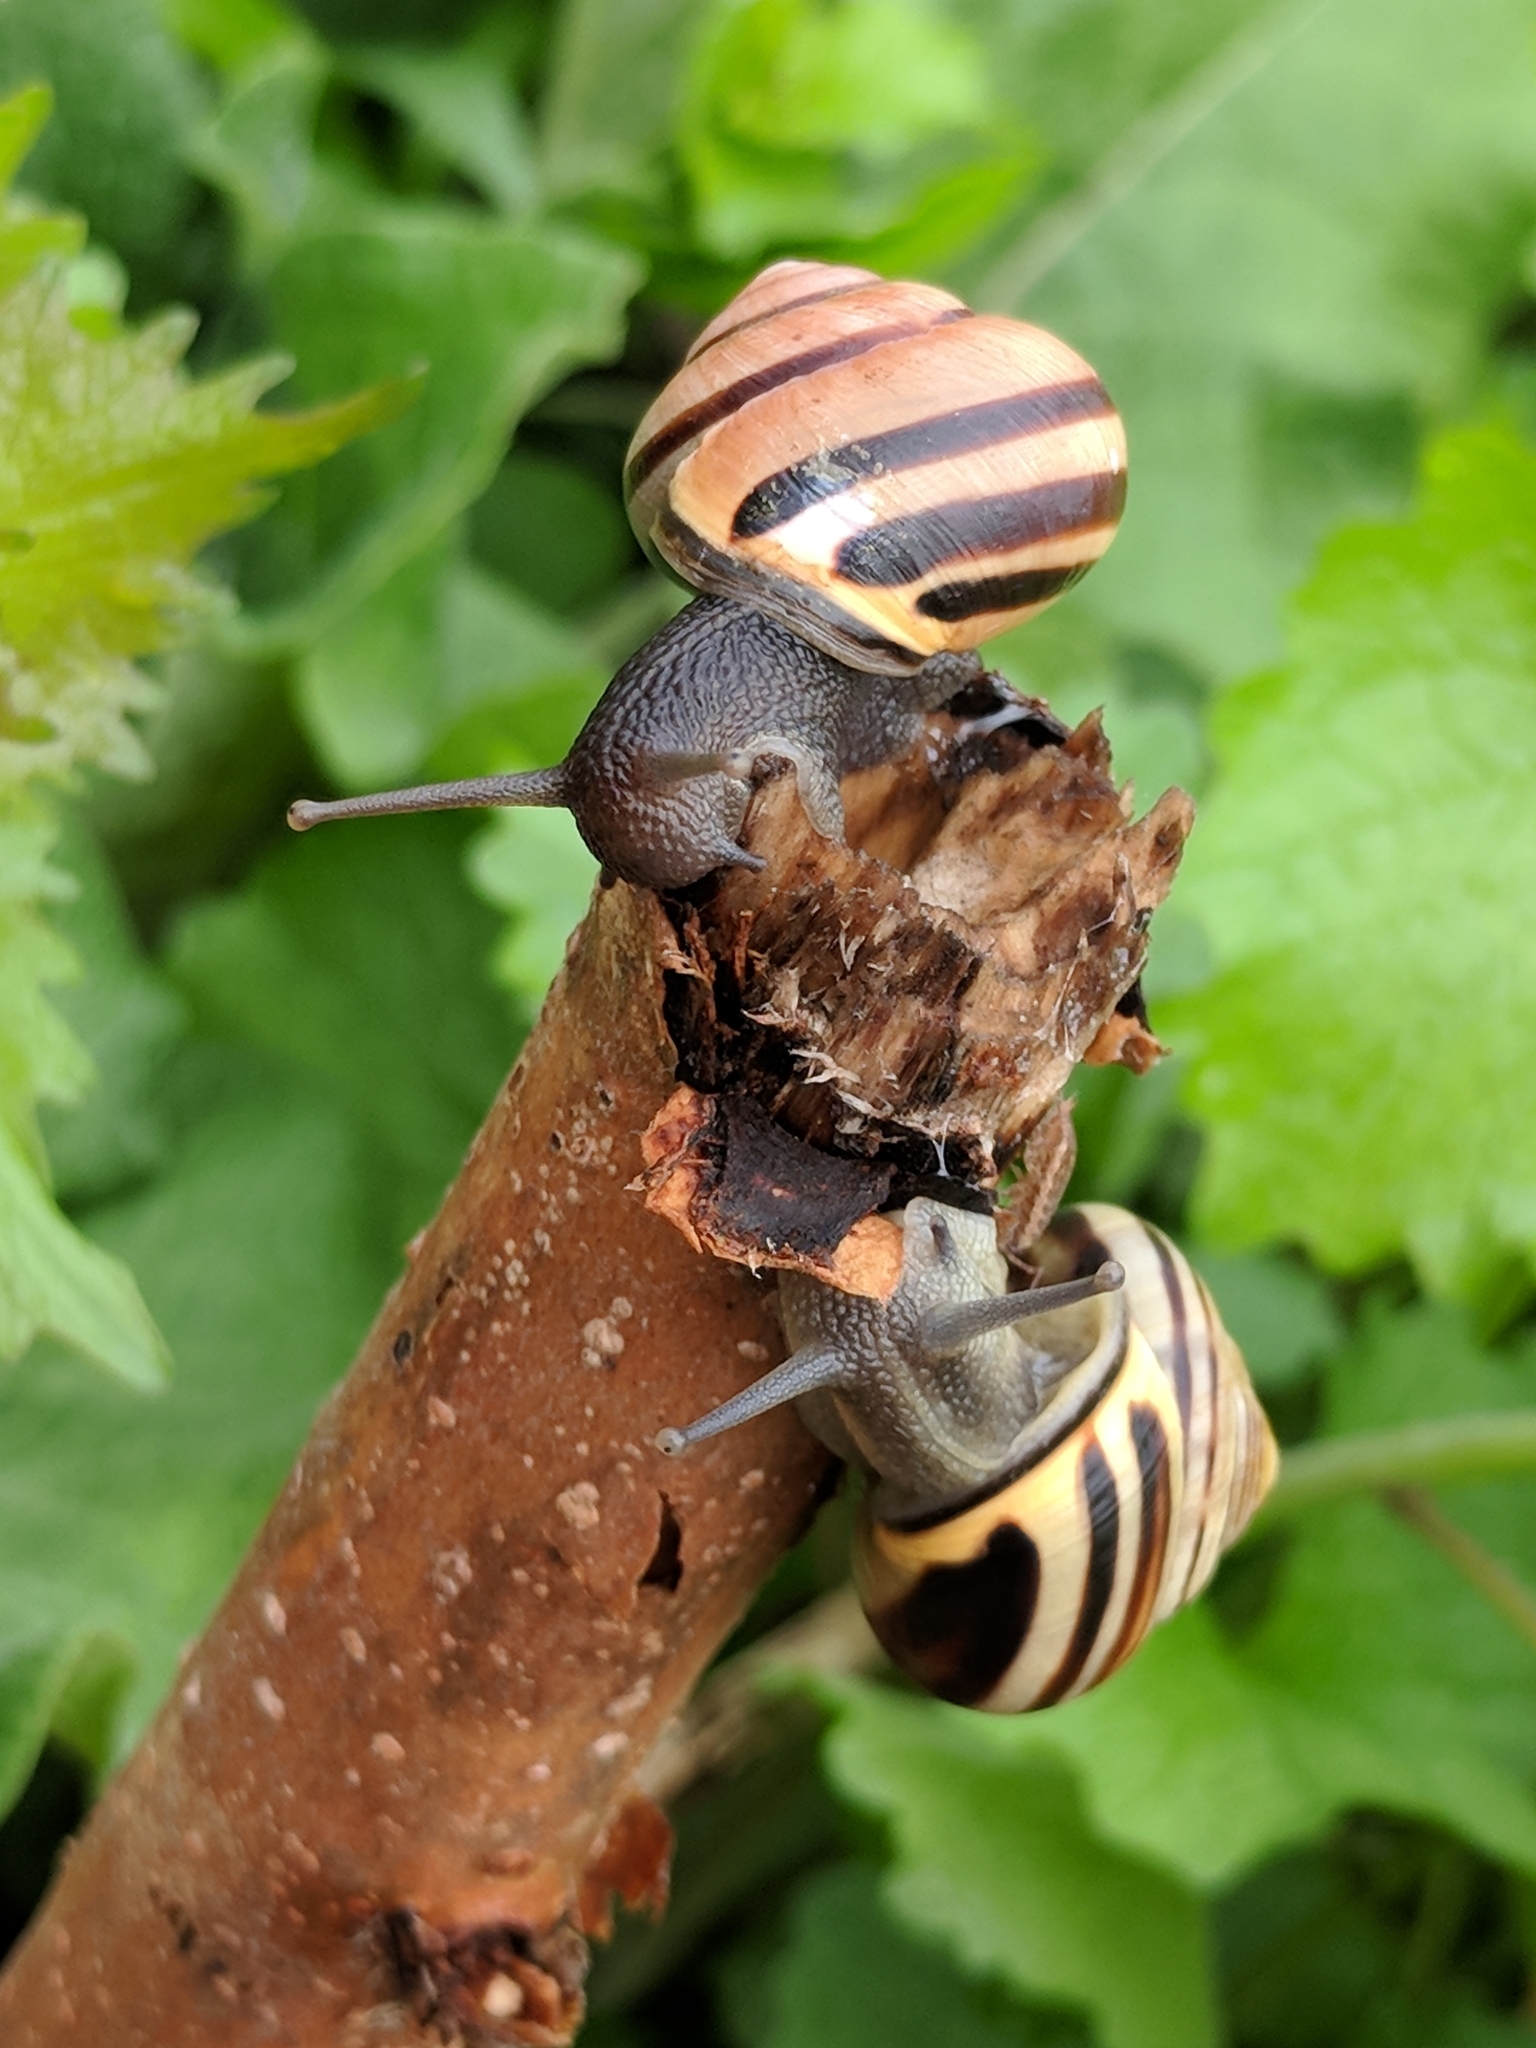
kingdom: Animalia
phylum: Mollusca
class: Gastropoda
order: Stylommatophora
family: Helicidae
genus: Cepaea
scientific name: Cepaea nemoralis
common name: Grovesnail
